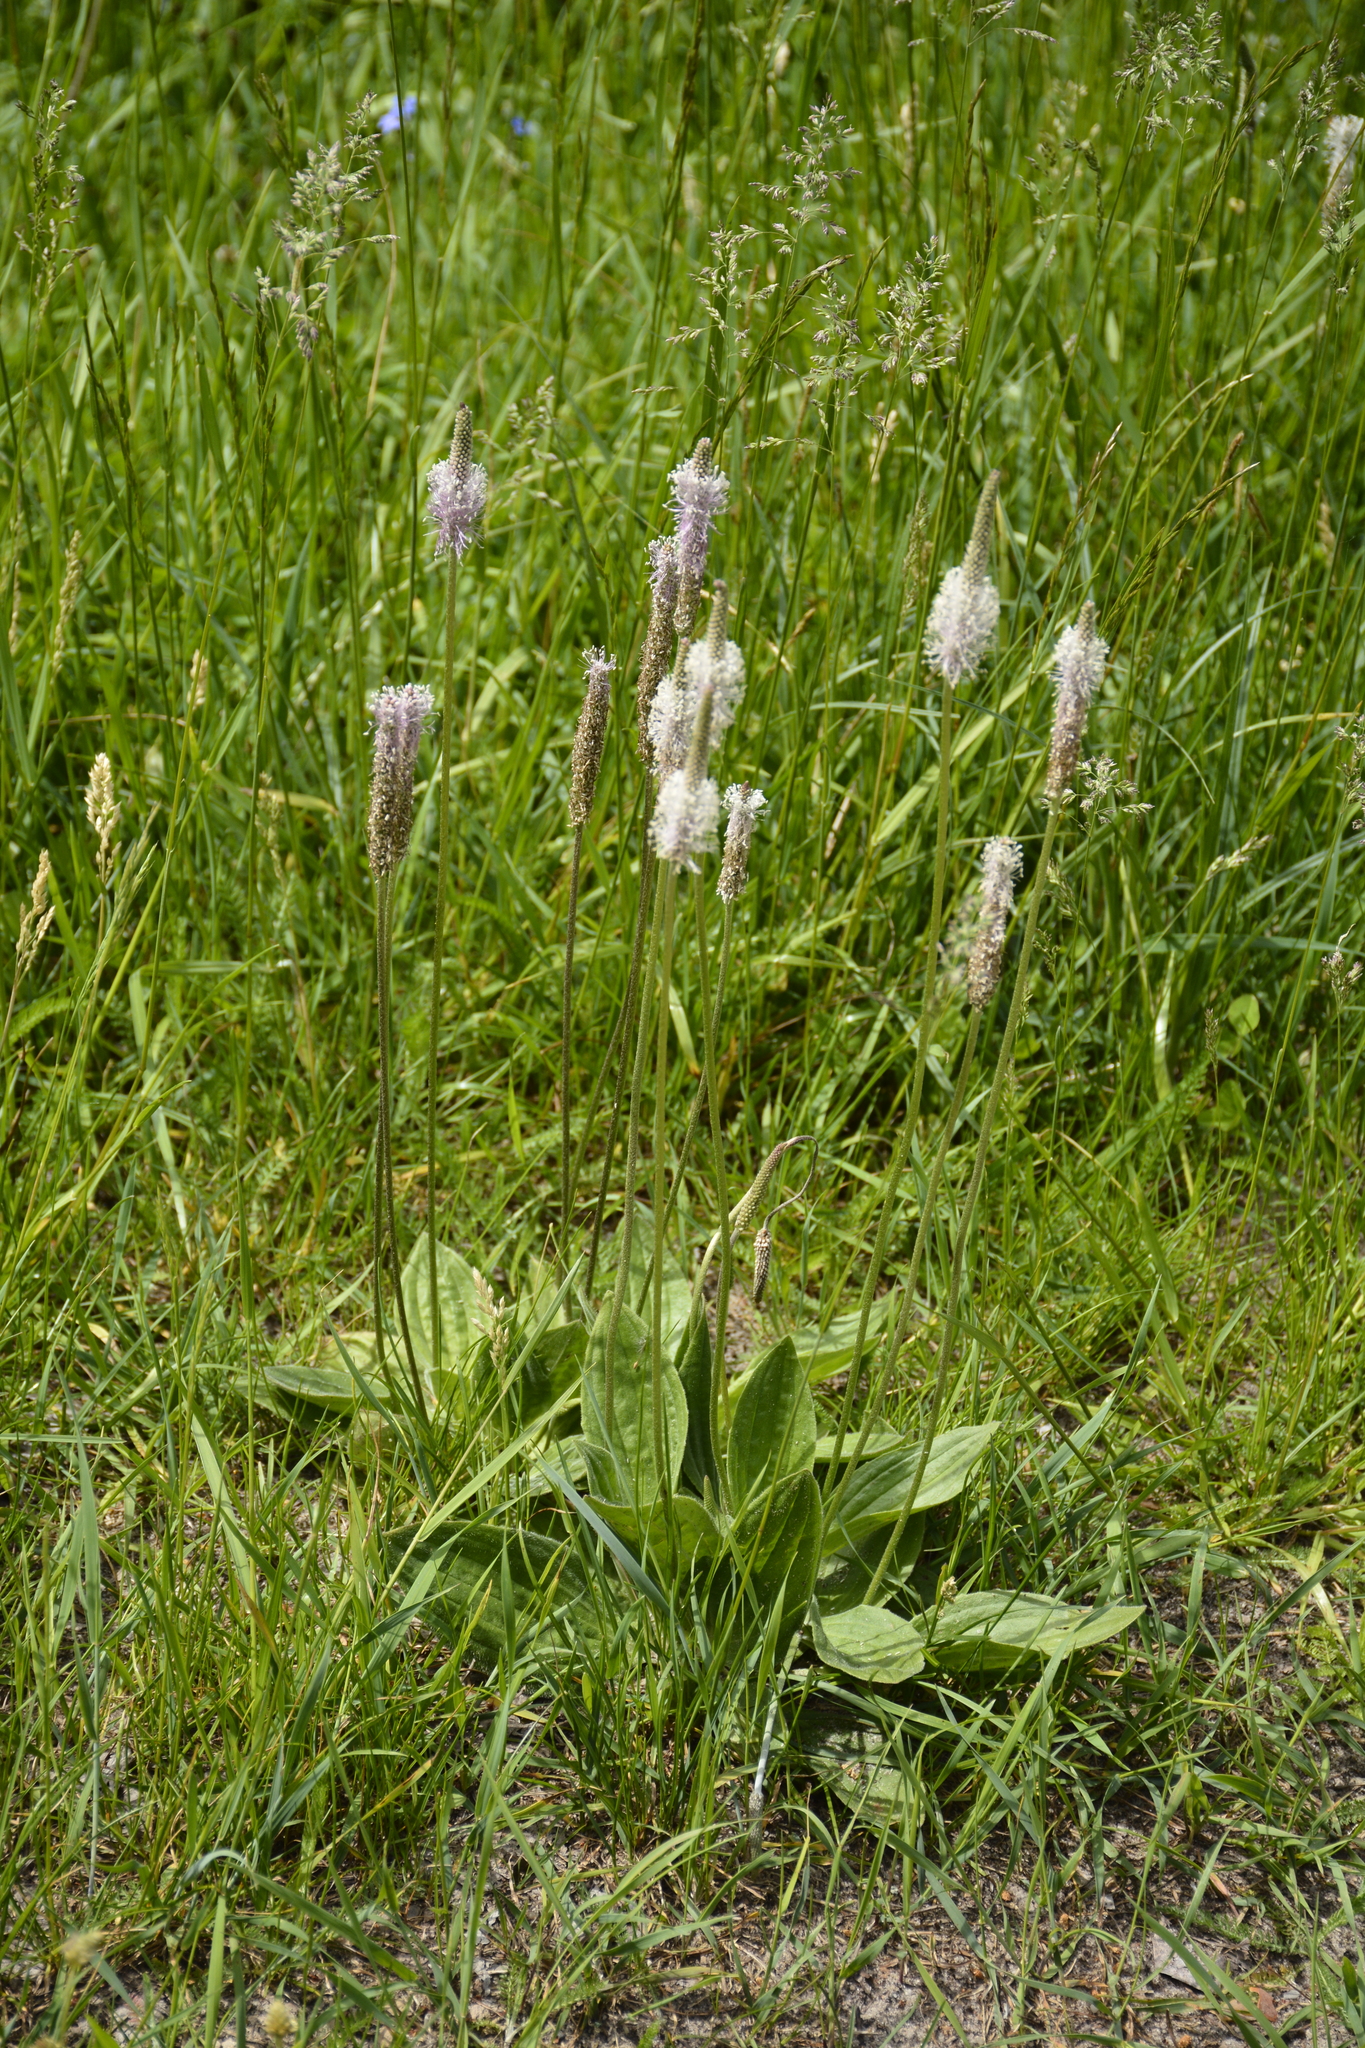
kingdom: Plantae
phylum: Tracheophyta
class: Magnoliopsida
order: Lamiales
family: Plantaginaceae
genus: Plantago
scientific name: Plantago media
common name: Hoary plantain
